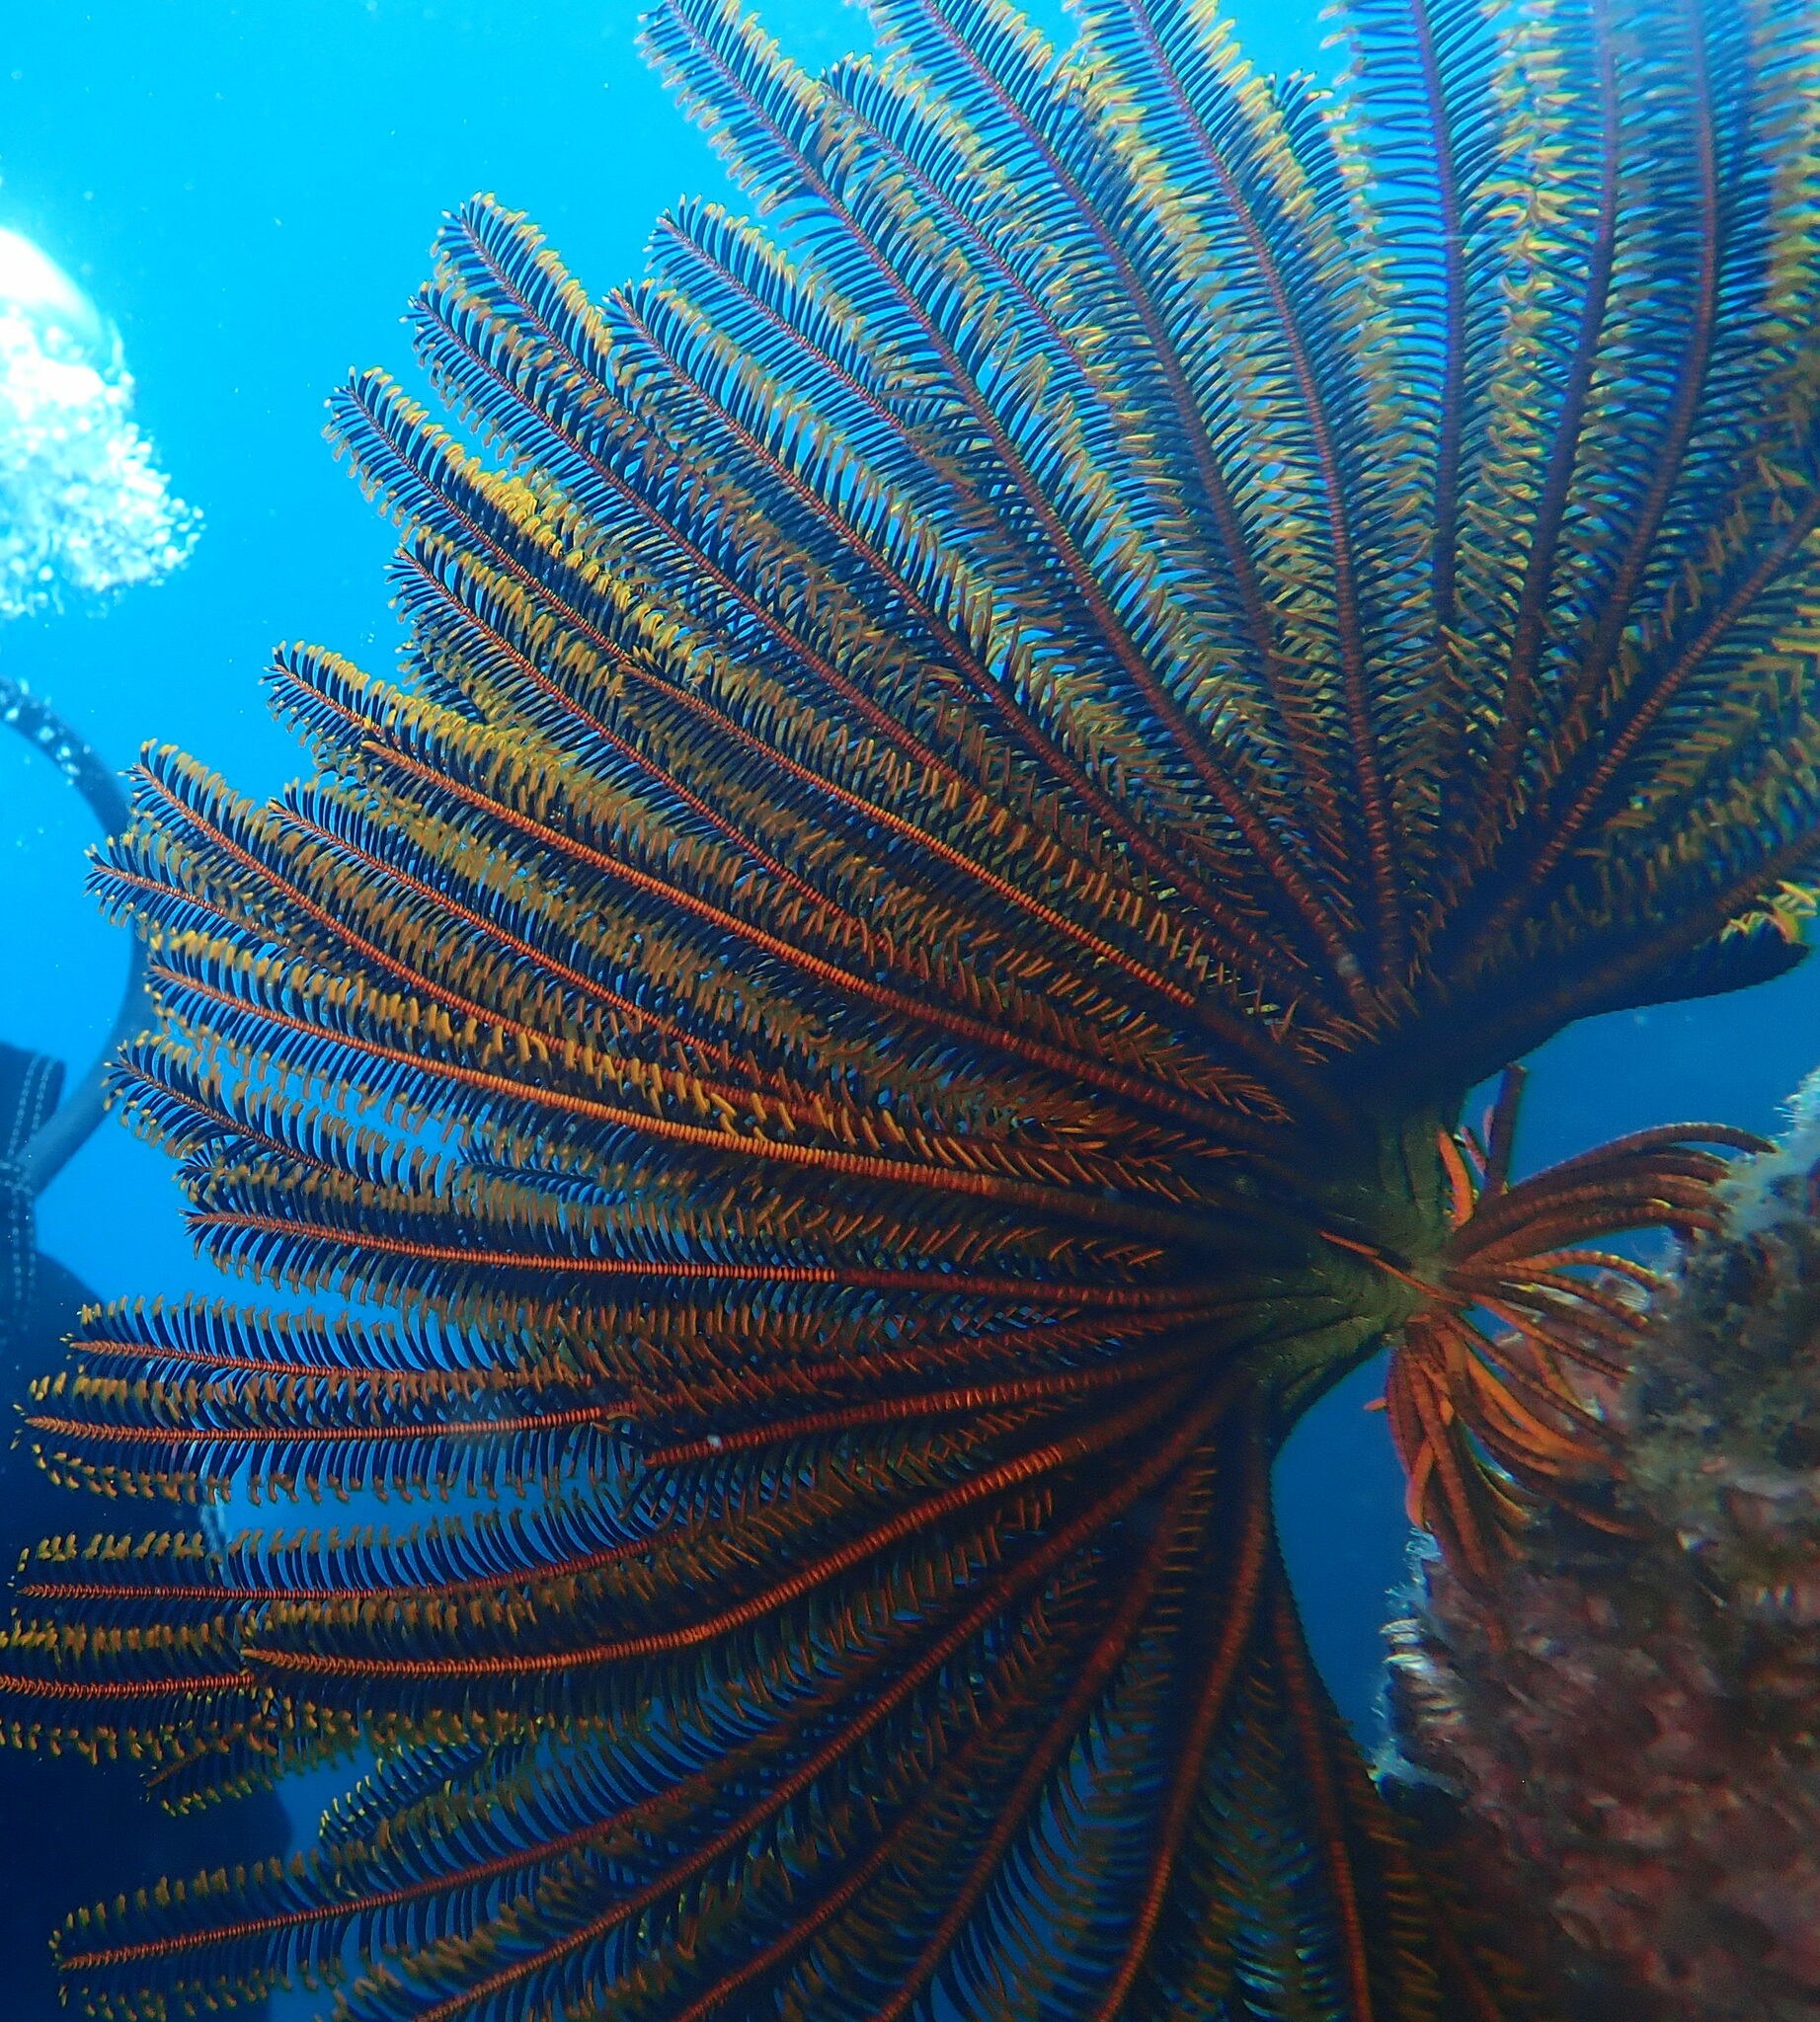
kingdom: Animalia
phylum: Echinodermata
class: Crinoidea
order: Comatulida
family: Comatulidae
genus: Anneissia
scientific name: Anneissia bennetti
